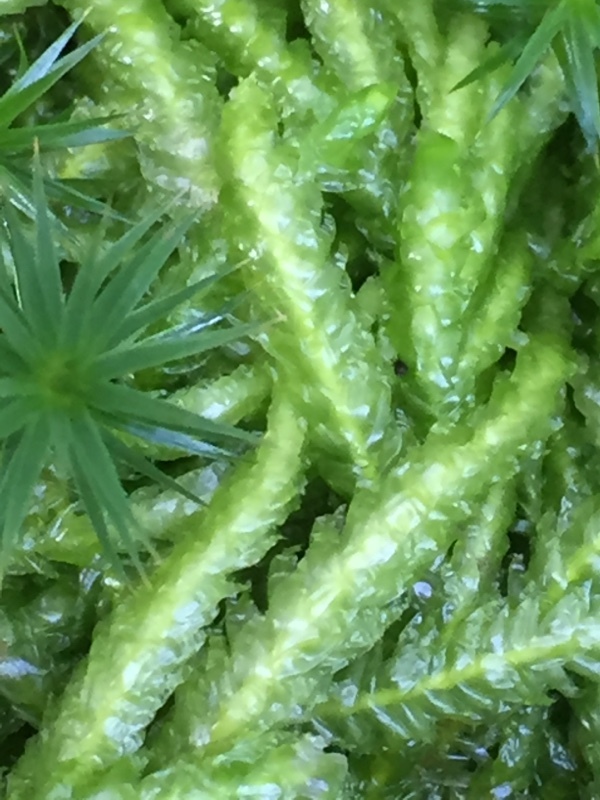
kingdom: Plantae
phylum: Bryophyta
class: Bryopsida
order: Hypnales
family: Plagiotheciaceae
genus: Plagiothecium
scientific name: Plagiothecium undulatum
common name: Waved silk-moss
